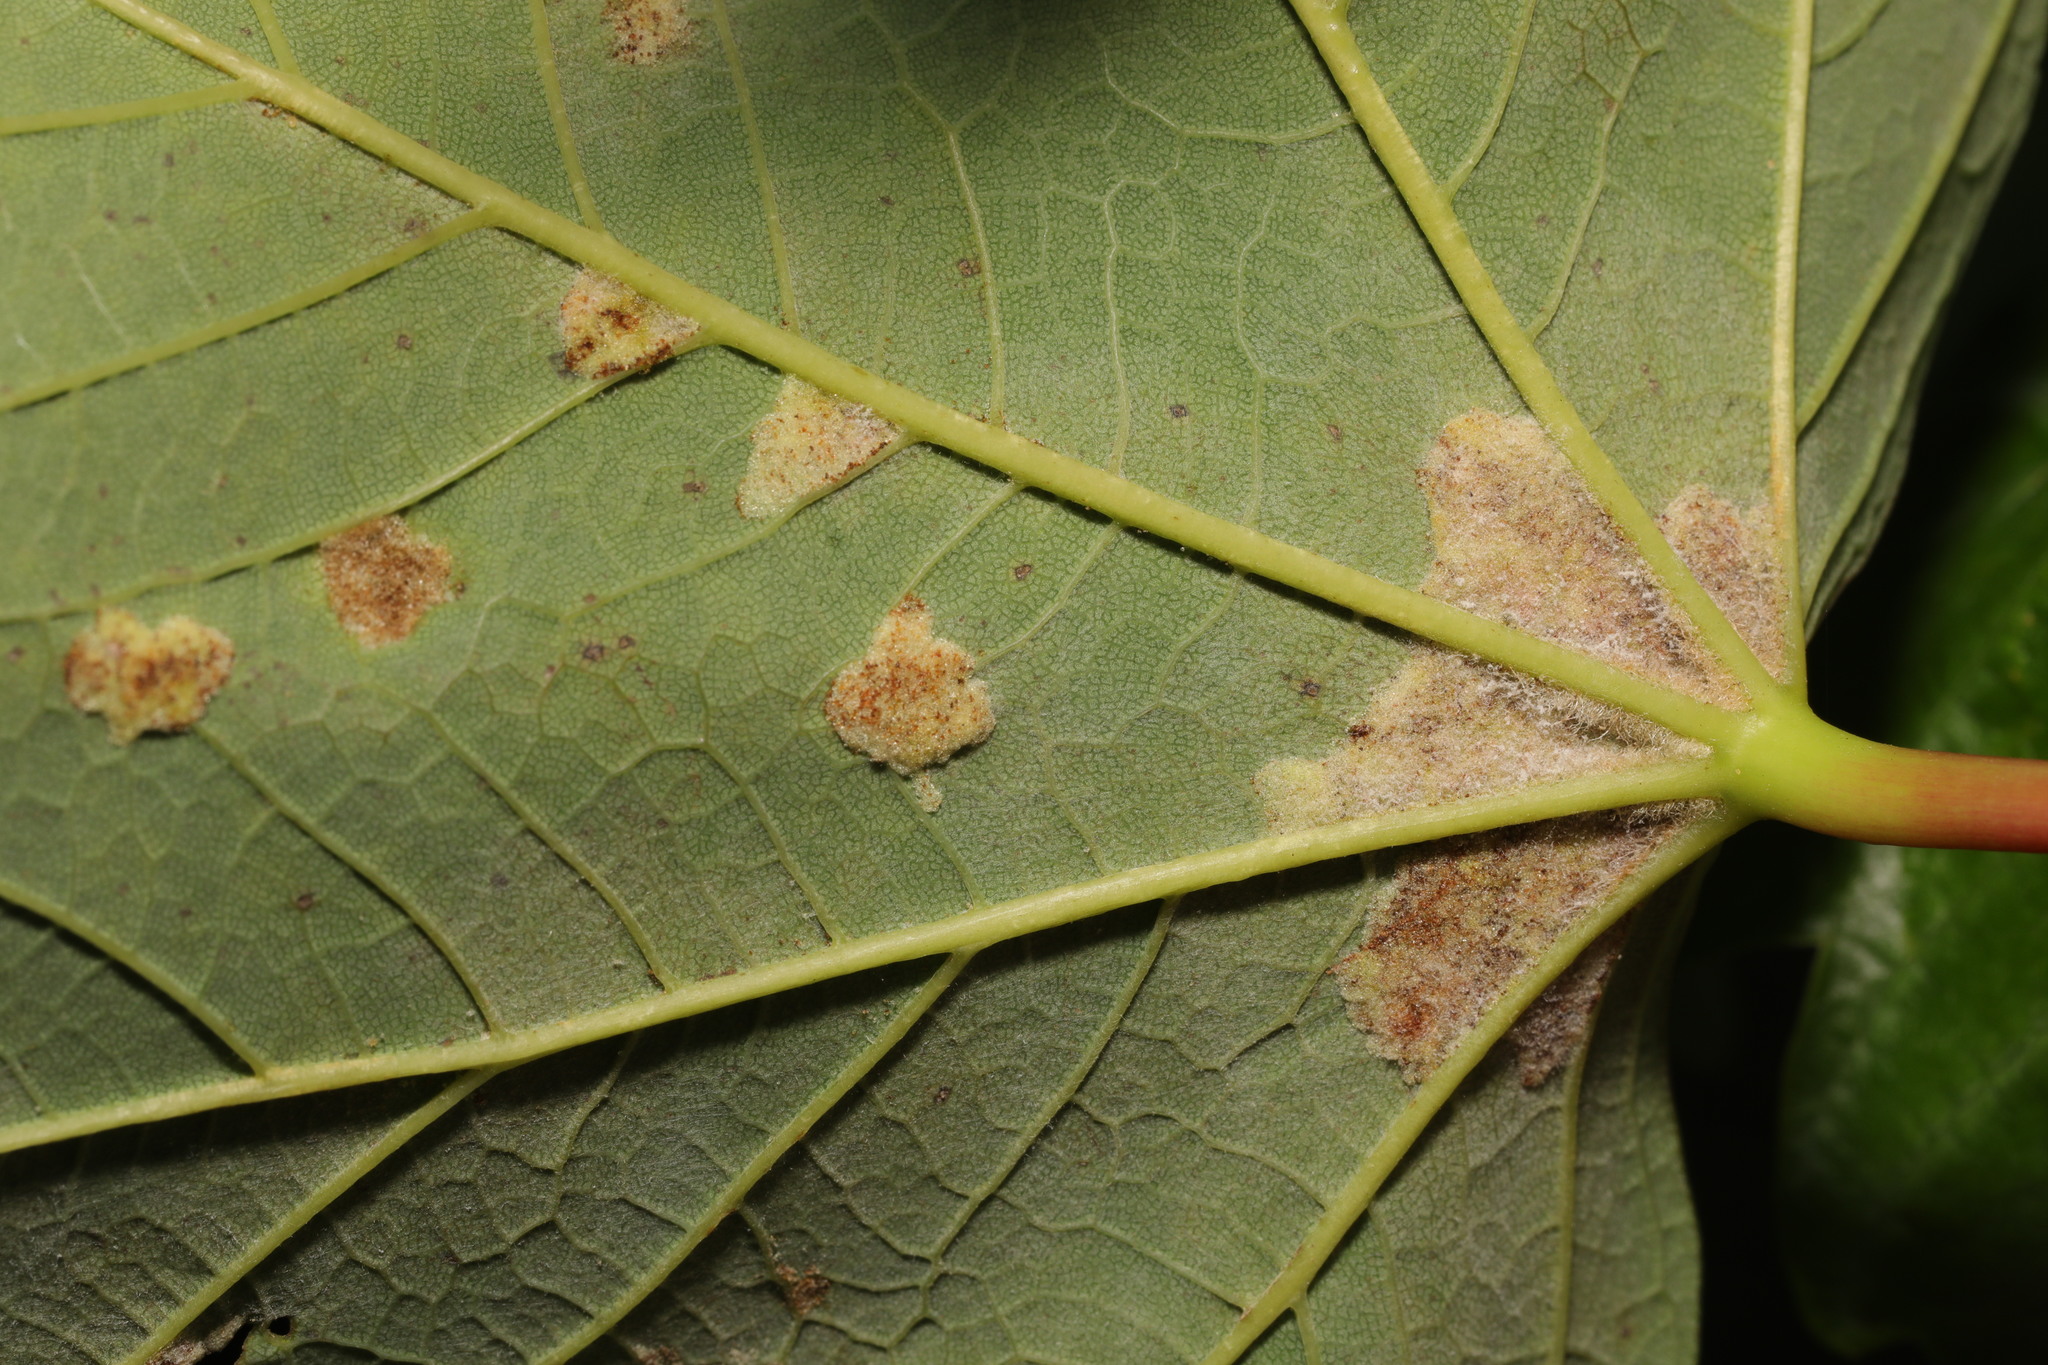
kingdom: Animalia
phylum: Arthropoda
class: Arachnida
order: Trombidiformes
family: Eriophyidae
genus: Aceria
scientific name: Aceria pseudoplatani
